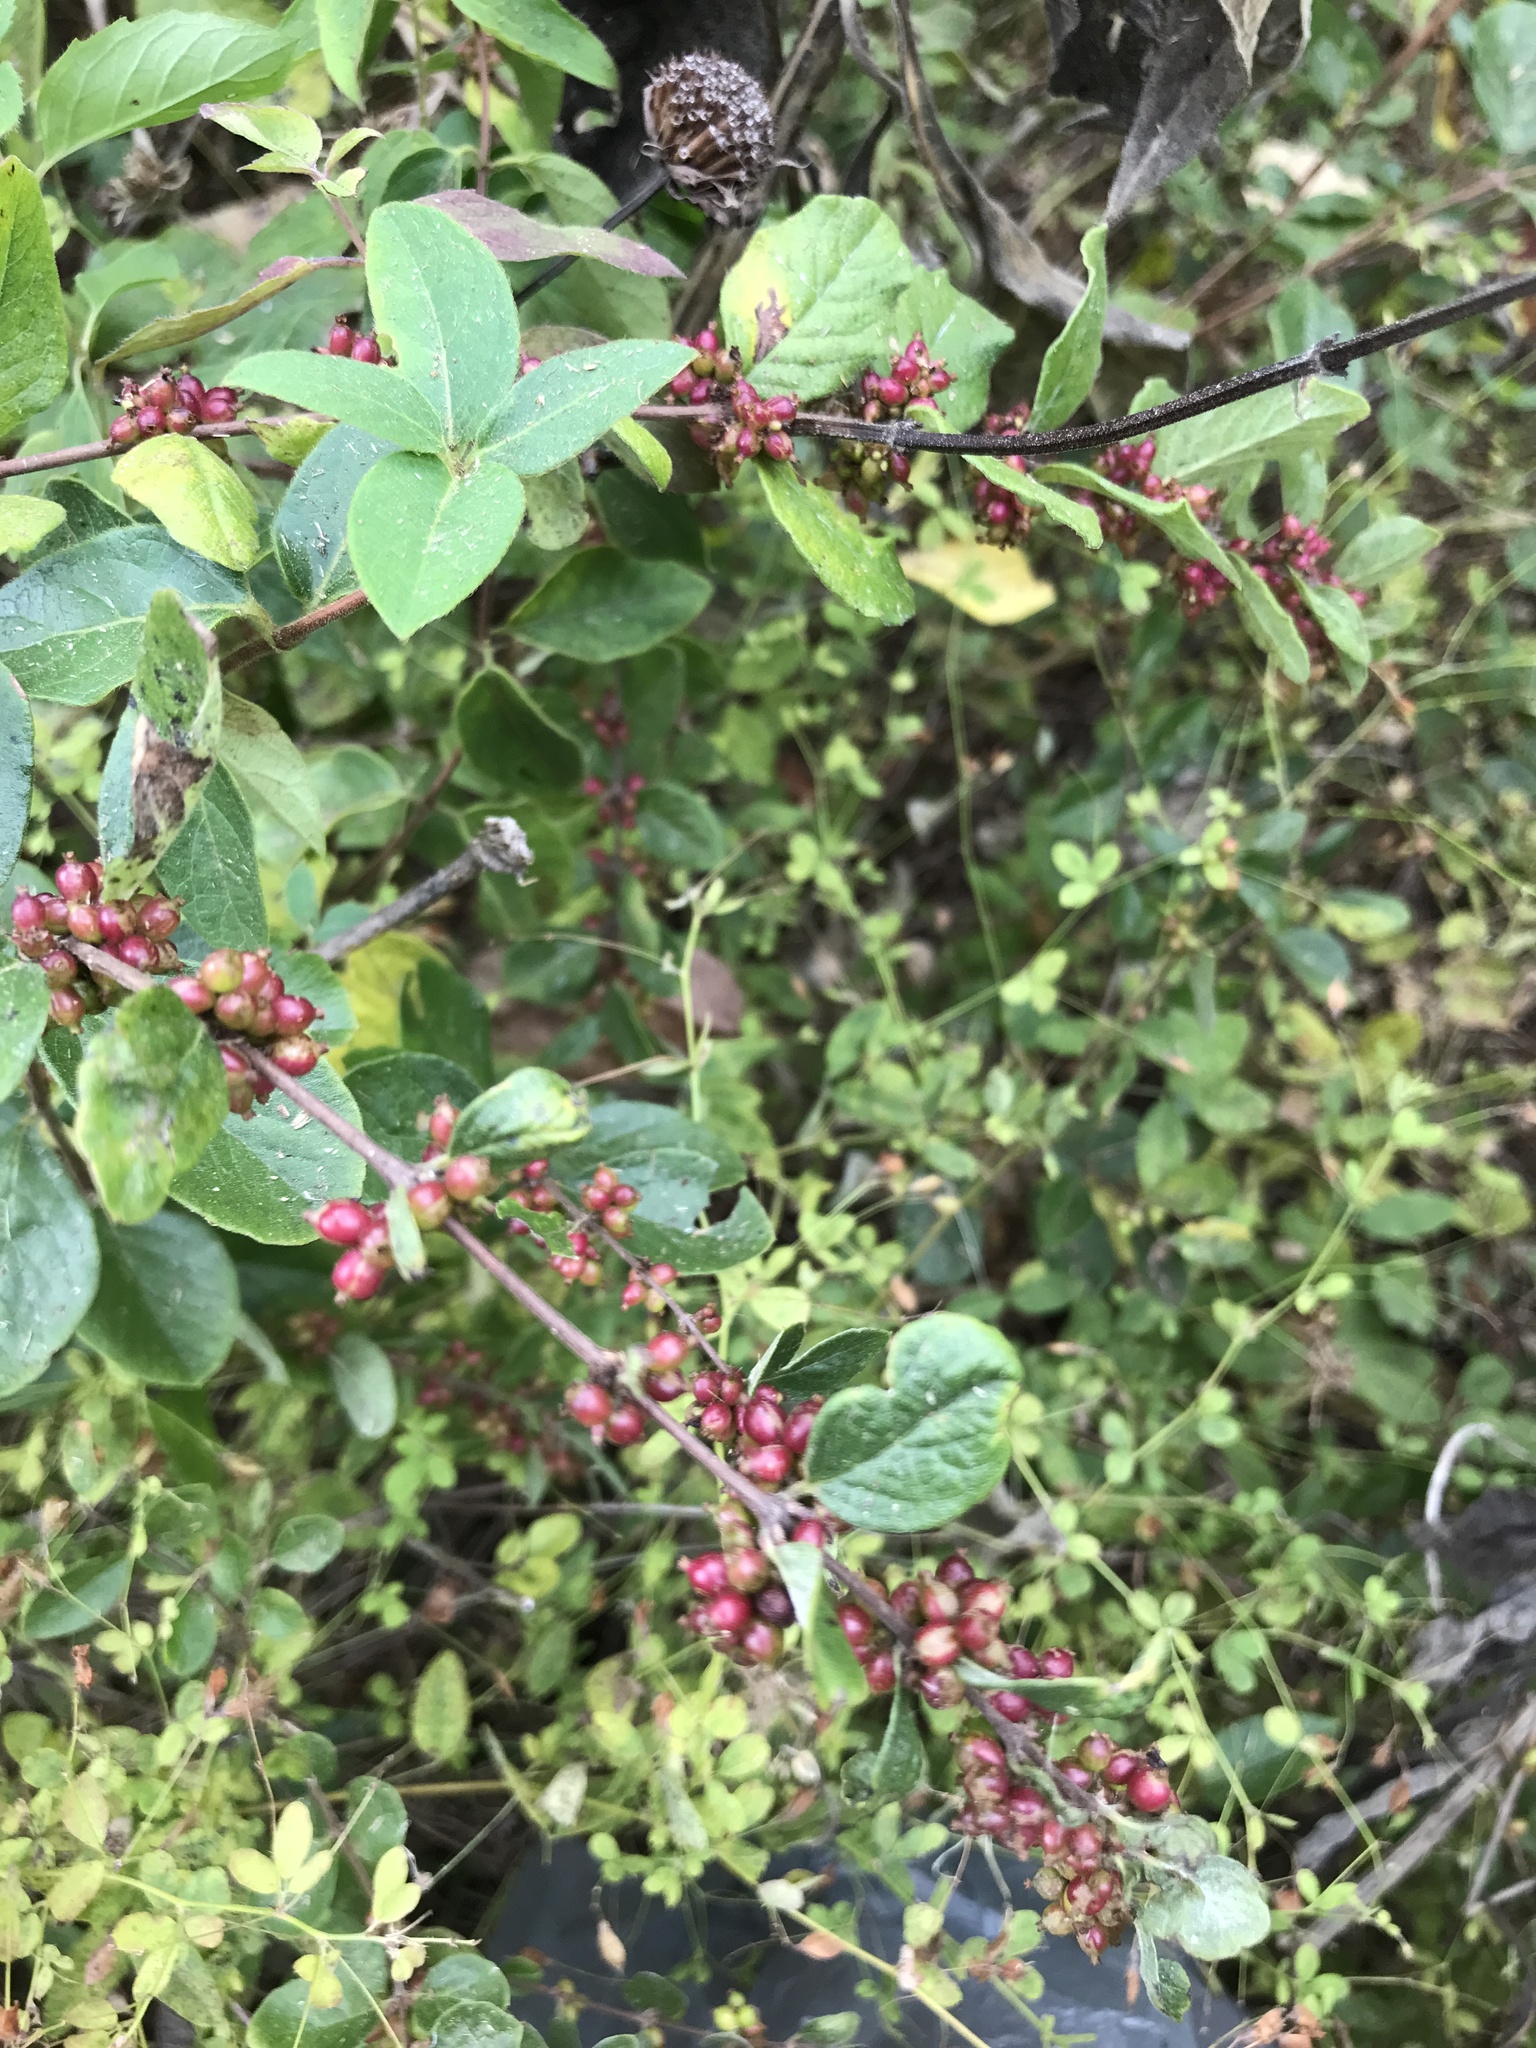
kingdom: Plantae
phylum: Tracheophyta
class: Magnoliopsida
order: Dipsacales
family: Caprifoliaceae
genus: Symphoricarpos
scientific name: Symphoricarpos orbiculatus
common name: Coralberry
